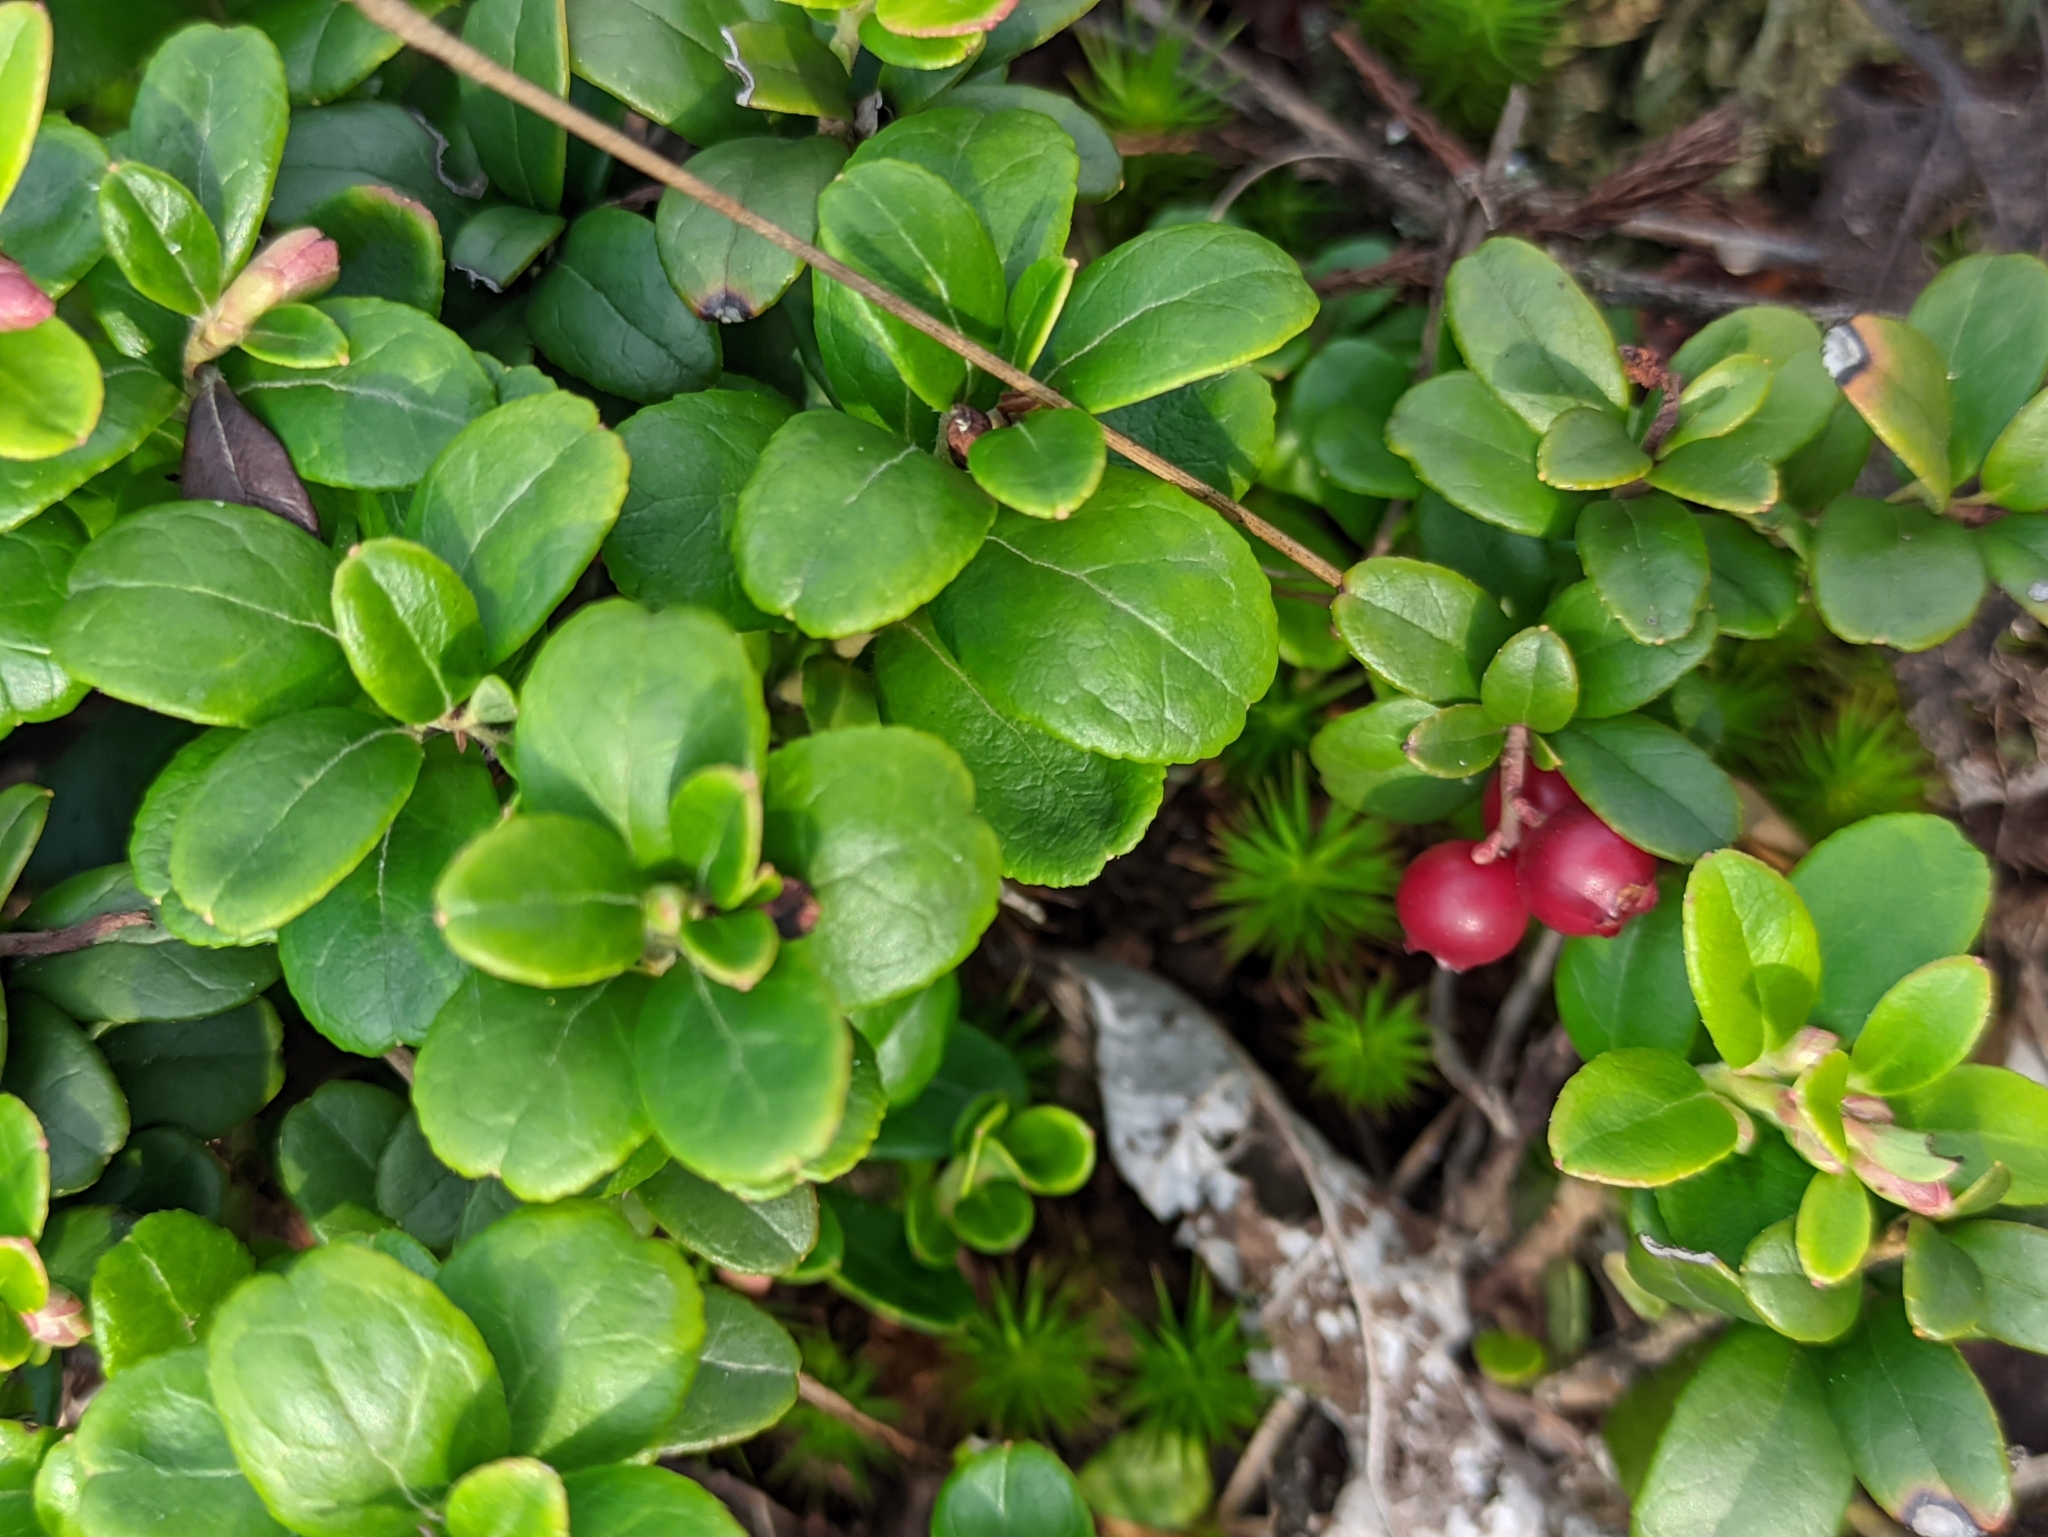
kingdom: Plantae
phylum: Tracheophyta
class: Magnoliopsida
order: Ericales
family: Ericaceae
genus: Vaccinium
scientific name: Vaccinium vitis-idaea
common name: Cowberry
